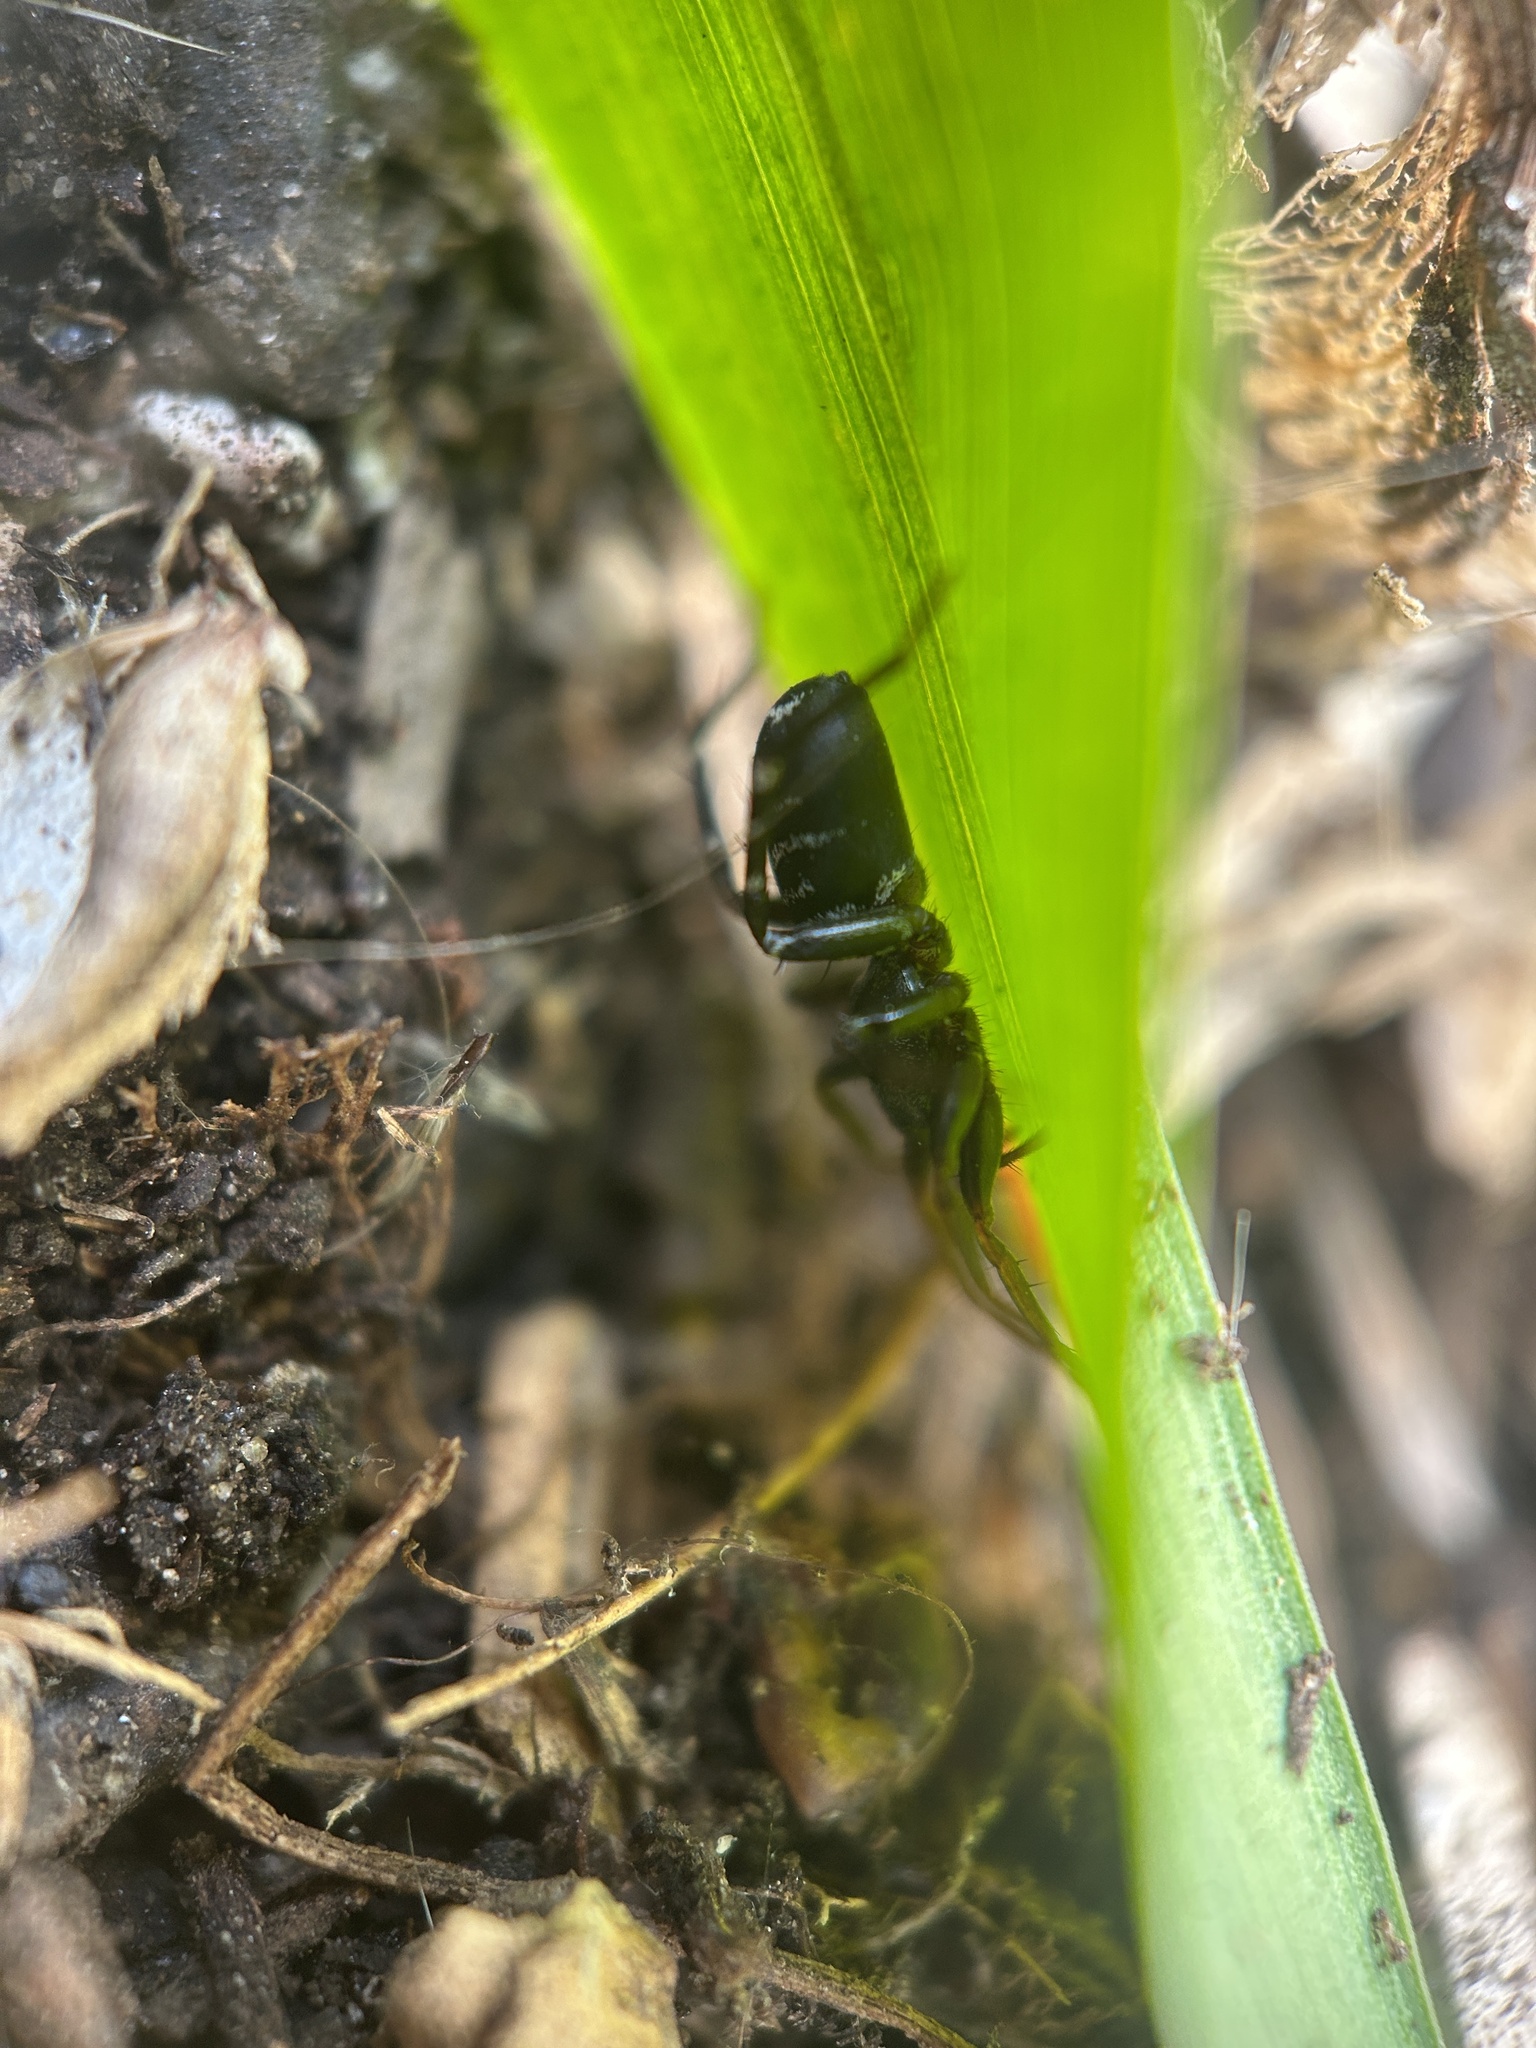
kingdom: Animalia
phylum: Arthropoda
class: Arachnida
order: Araneae
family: Corinnidae
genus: Castianeira
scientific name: Castianeira longipalpa
